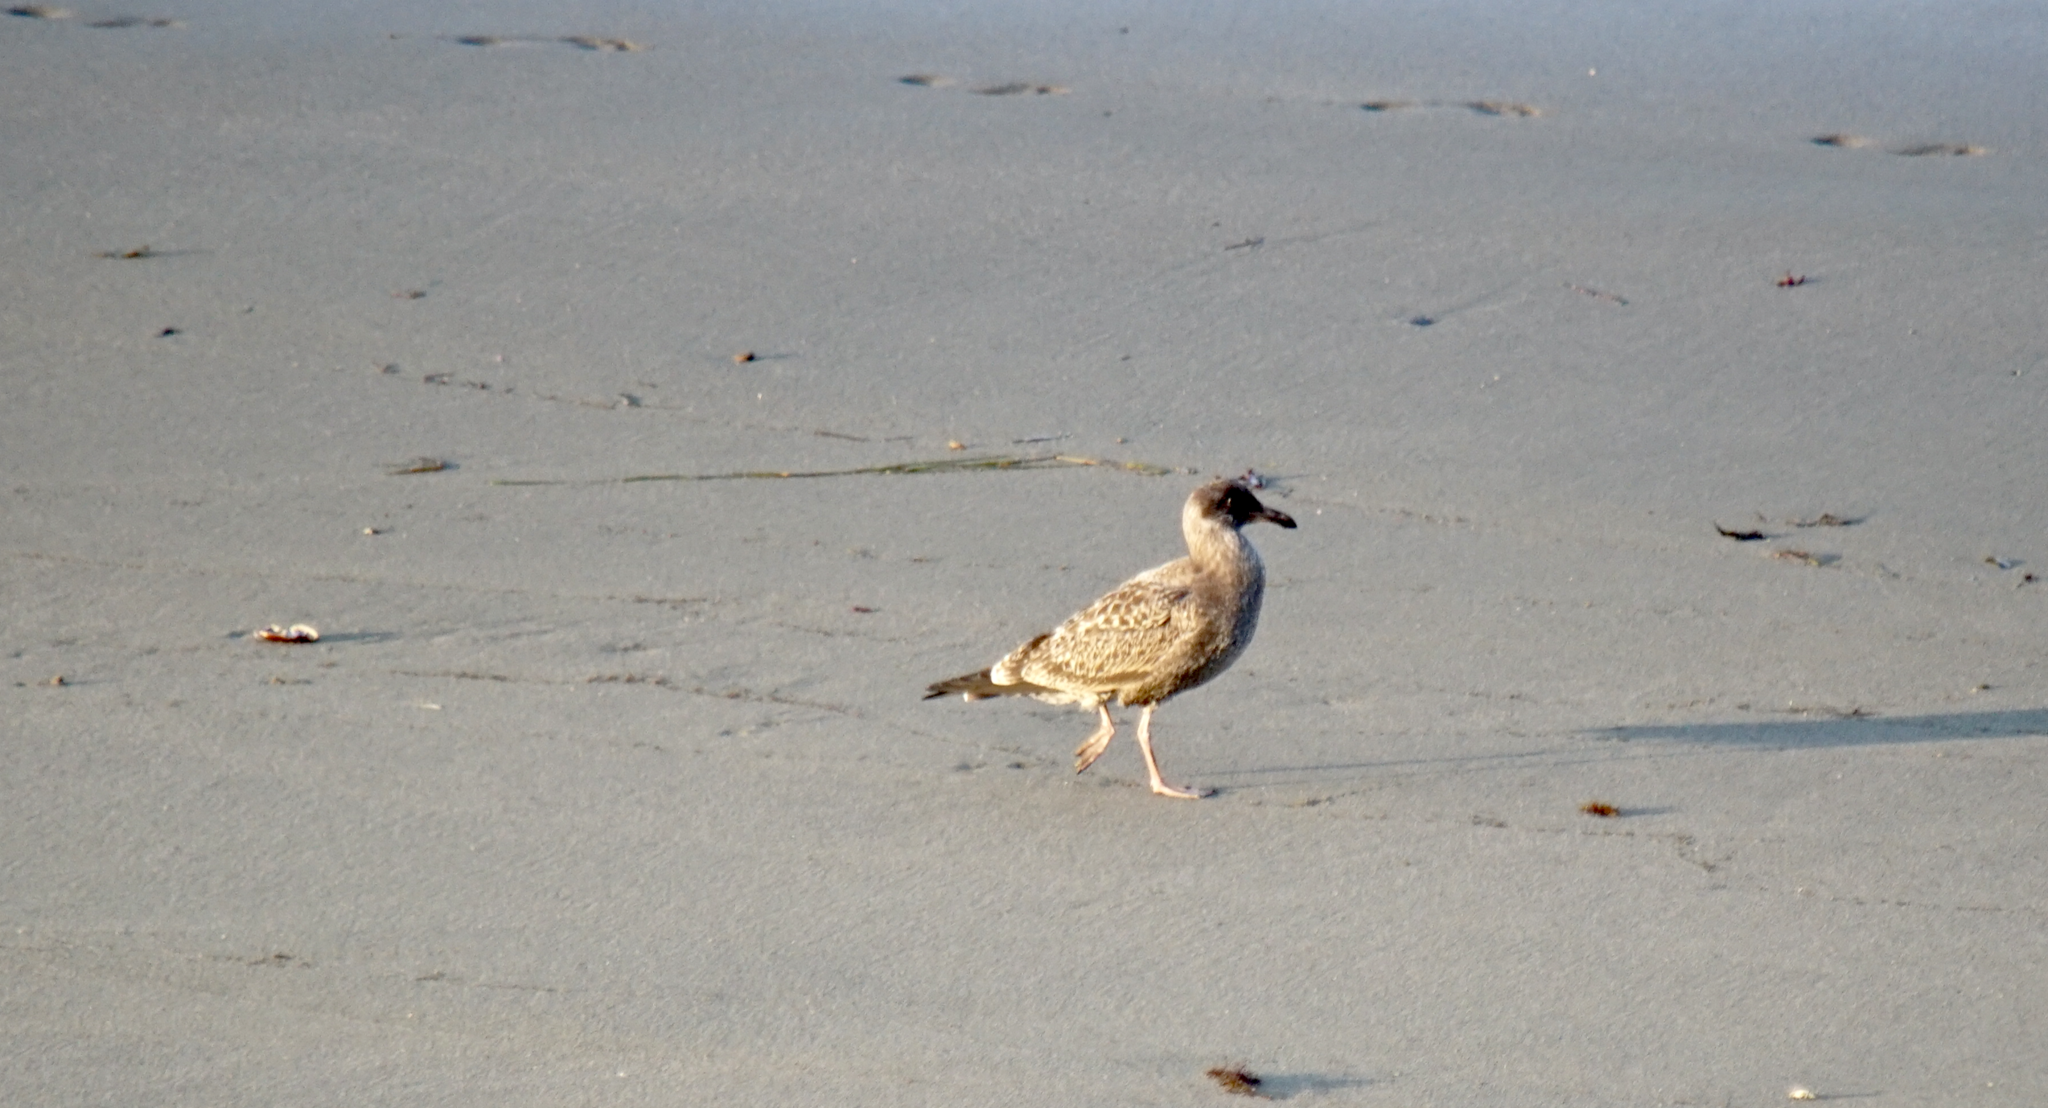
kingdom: Animalia
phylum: Chordata
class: Aves
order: Charadriiformes
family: Laridae
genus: Larus
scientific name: Larus occidentalis
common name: Western gull
